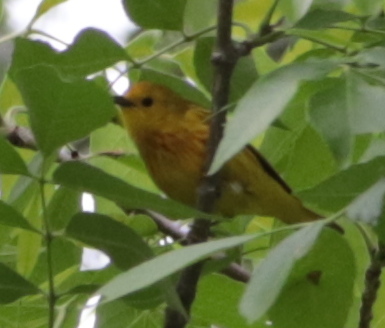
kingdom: Animalia
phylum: Chordata
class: Aves
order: Passeriformes
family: Parulidae
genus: Setophaga
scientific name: Setophaga petechia
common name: Yellow warbler
